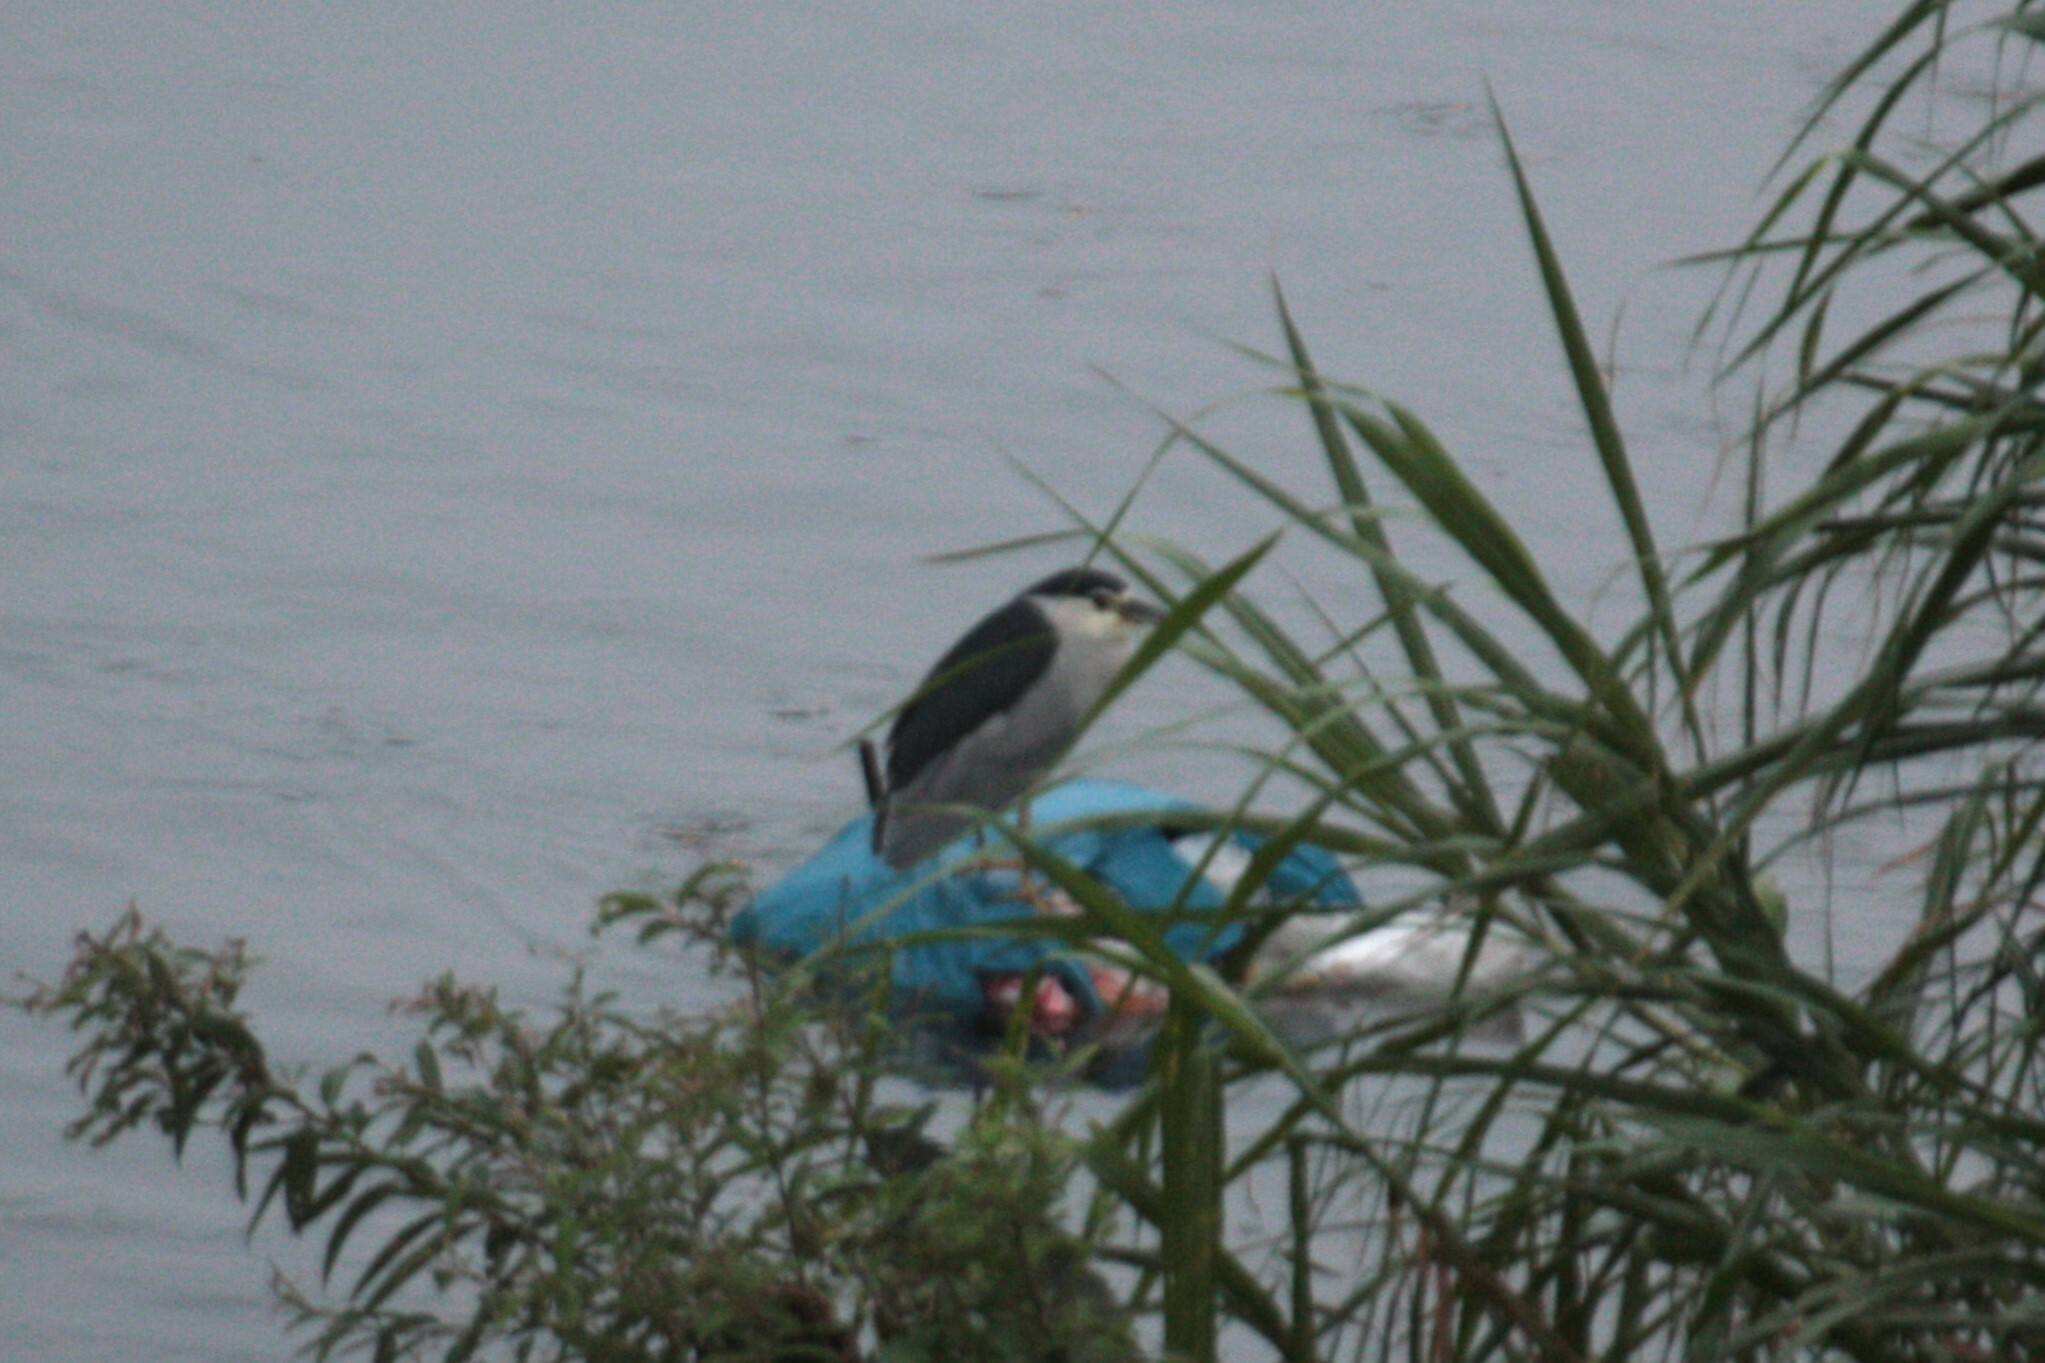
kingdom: Animalia
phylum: Chordata
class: Aves
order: Pelecaniformes
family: Ardeidae
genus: Nycticorax
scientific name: Nycticorax nycticorax
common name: Black-crowned night heron
